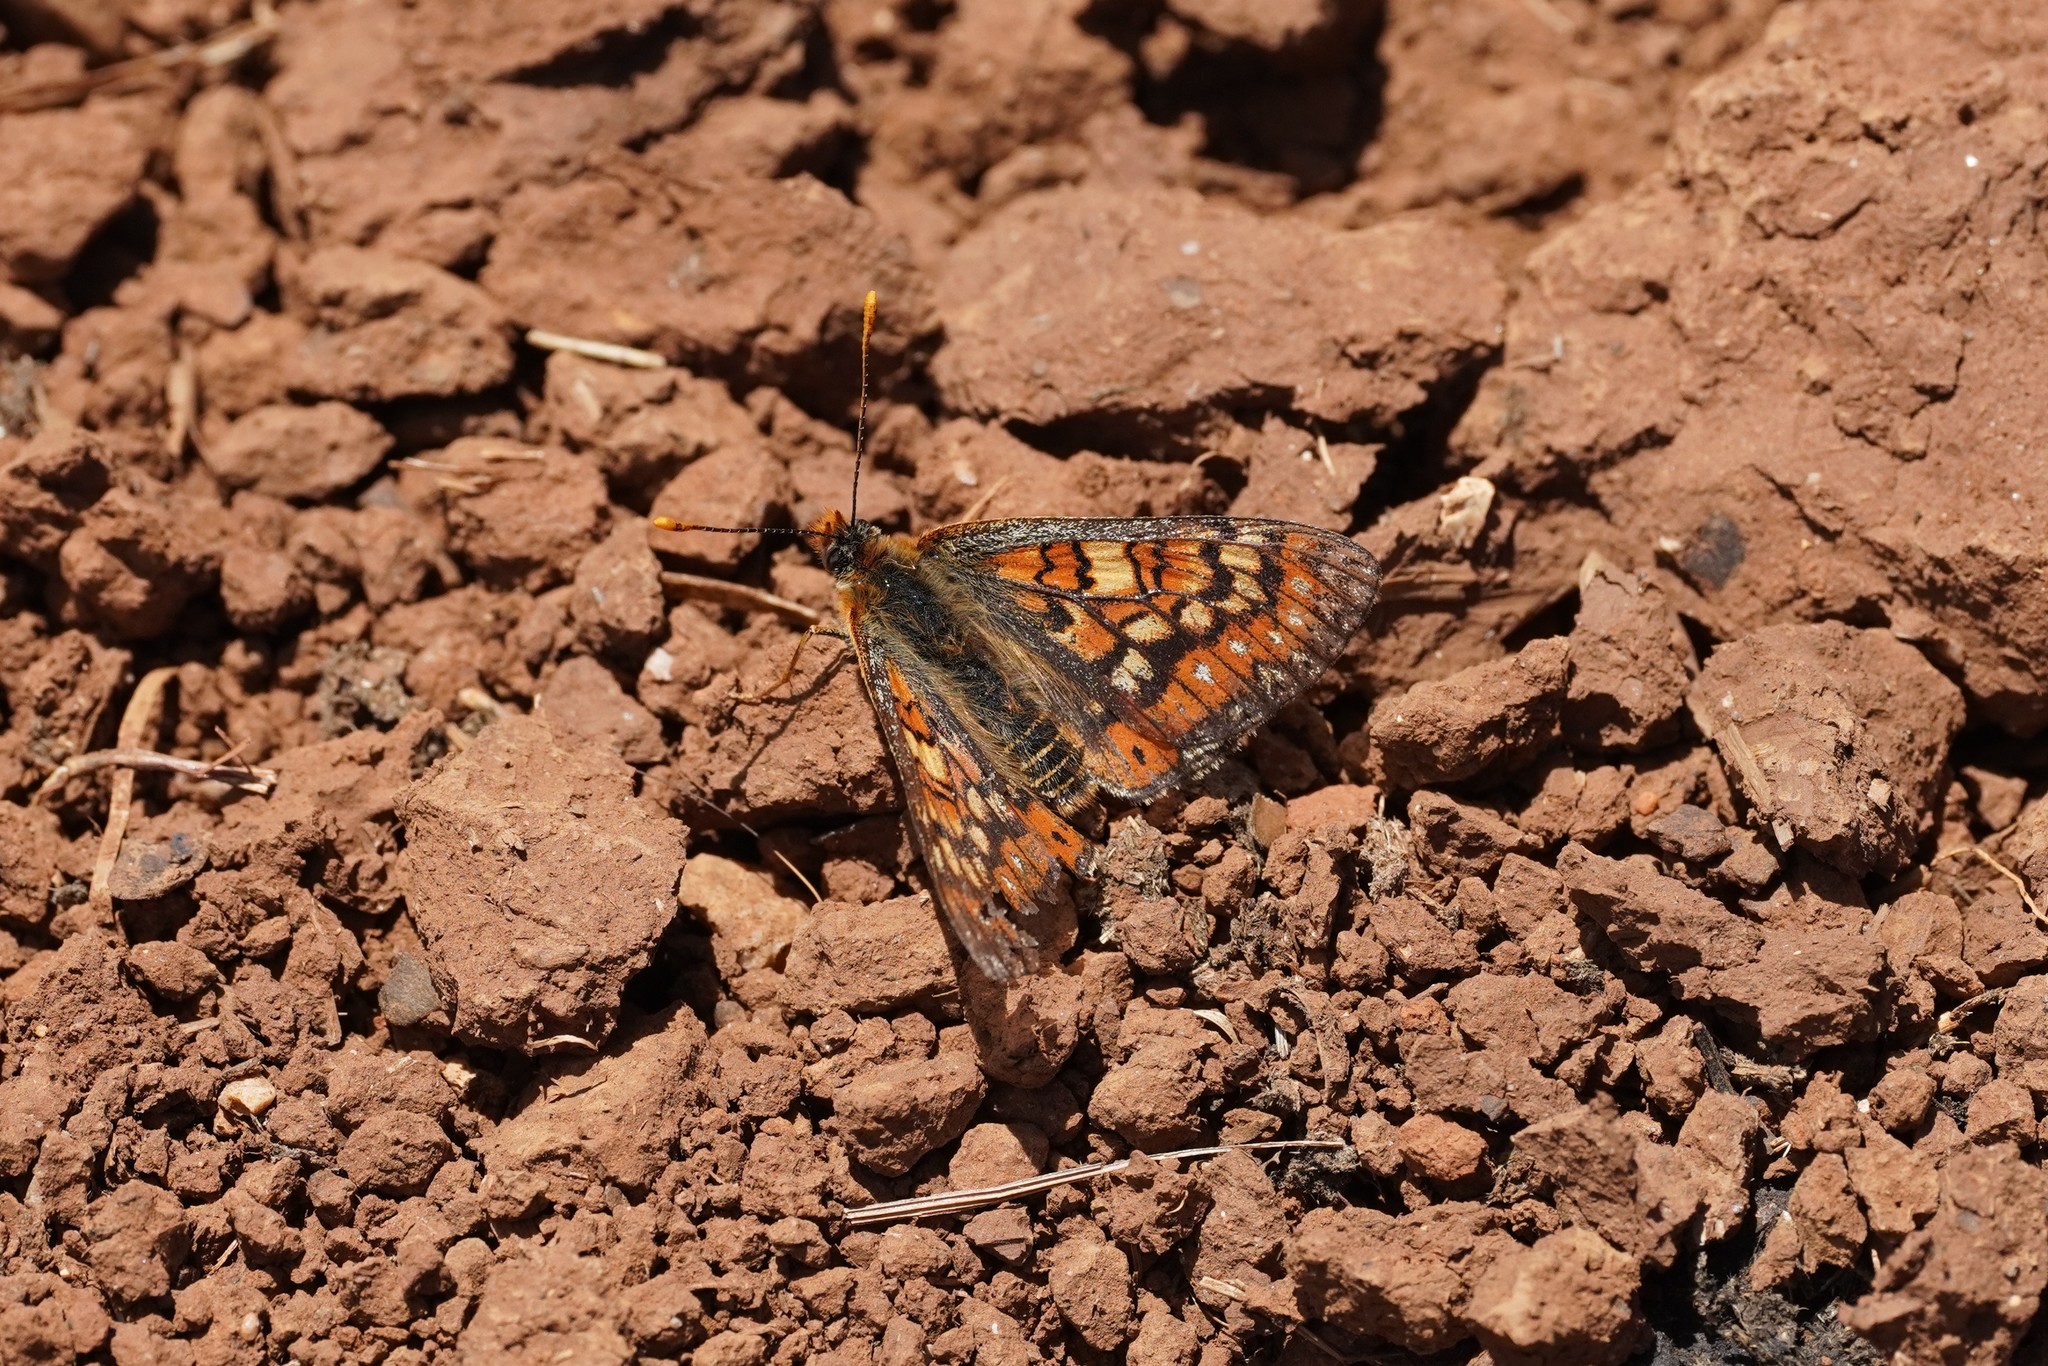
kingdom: Animalia
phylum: Arthropoda
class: Insecta
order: Lepidoptera
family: Nymphalidae
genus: Euphydryas
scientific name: Euphydryas desfontainii
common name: Spanish fritillary
